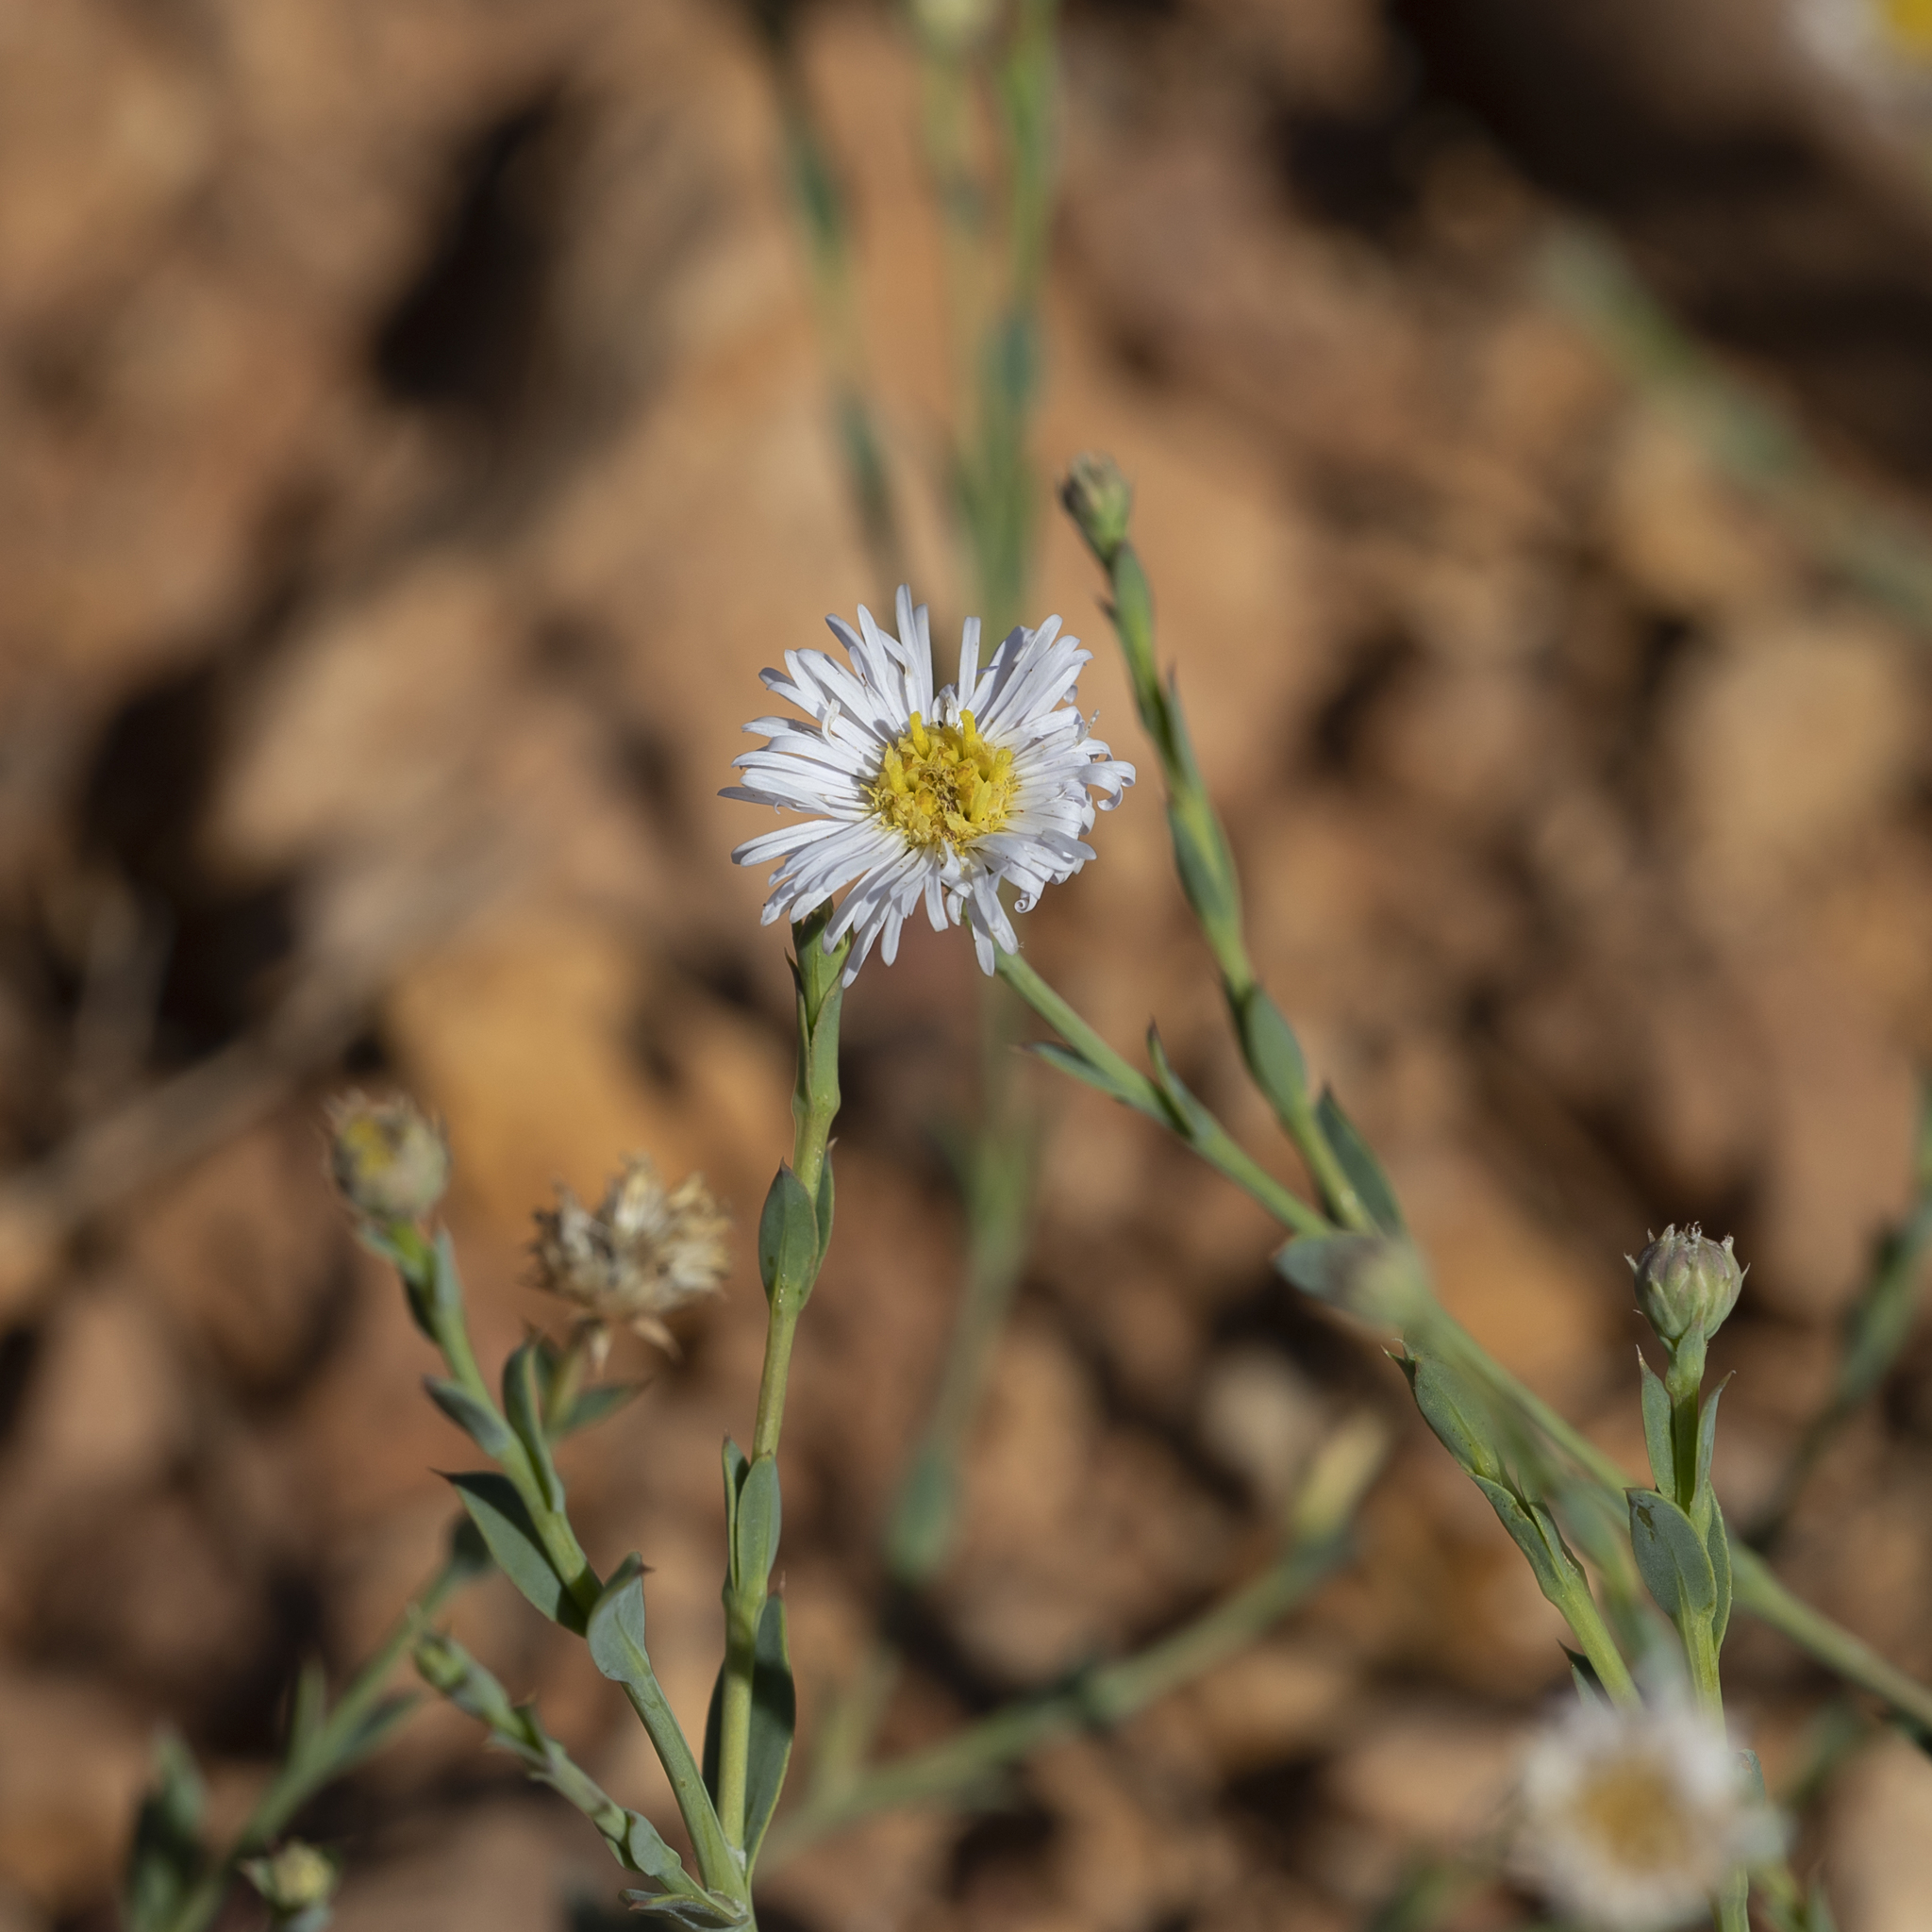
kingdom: Plantae
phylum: Tracheophyta
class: Magnoliopsida
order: Asterales
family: Asteraceae
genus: Minuria
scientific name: Minuria integerrima
